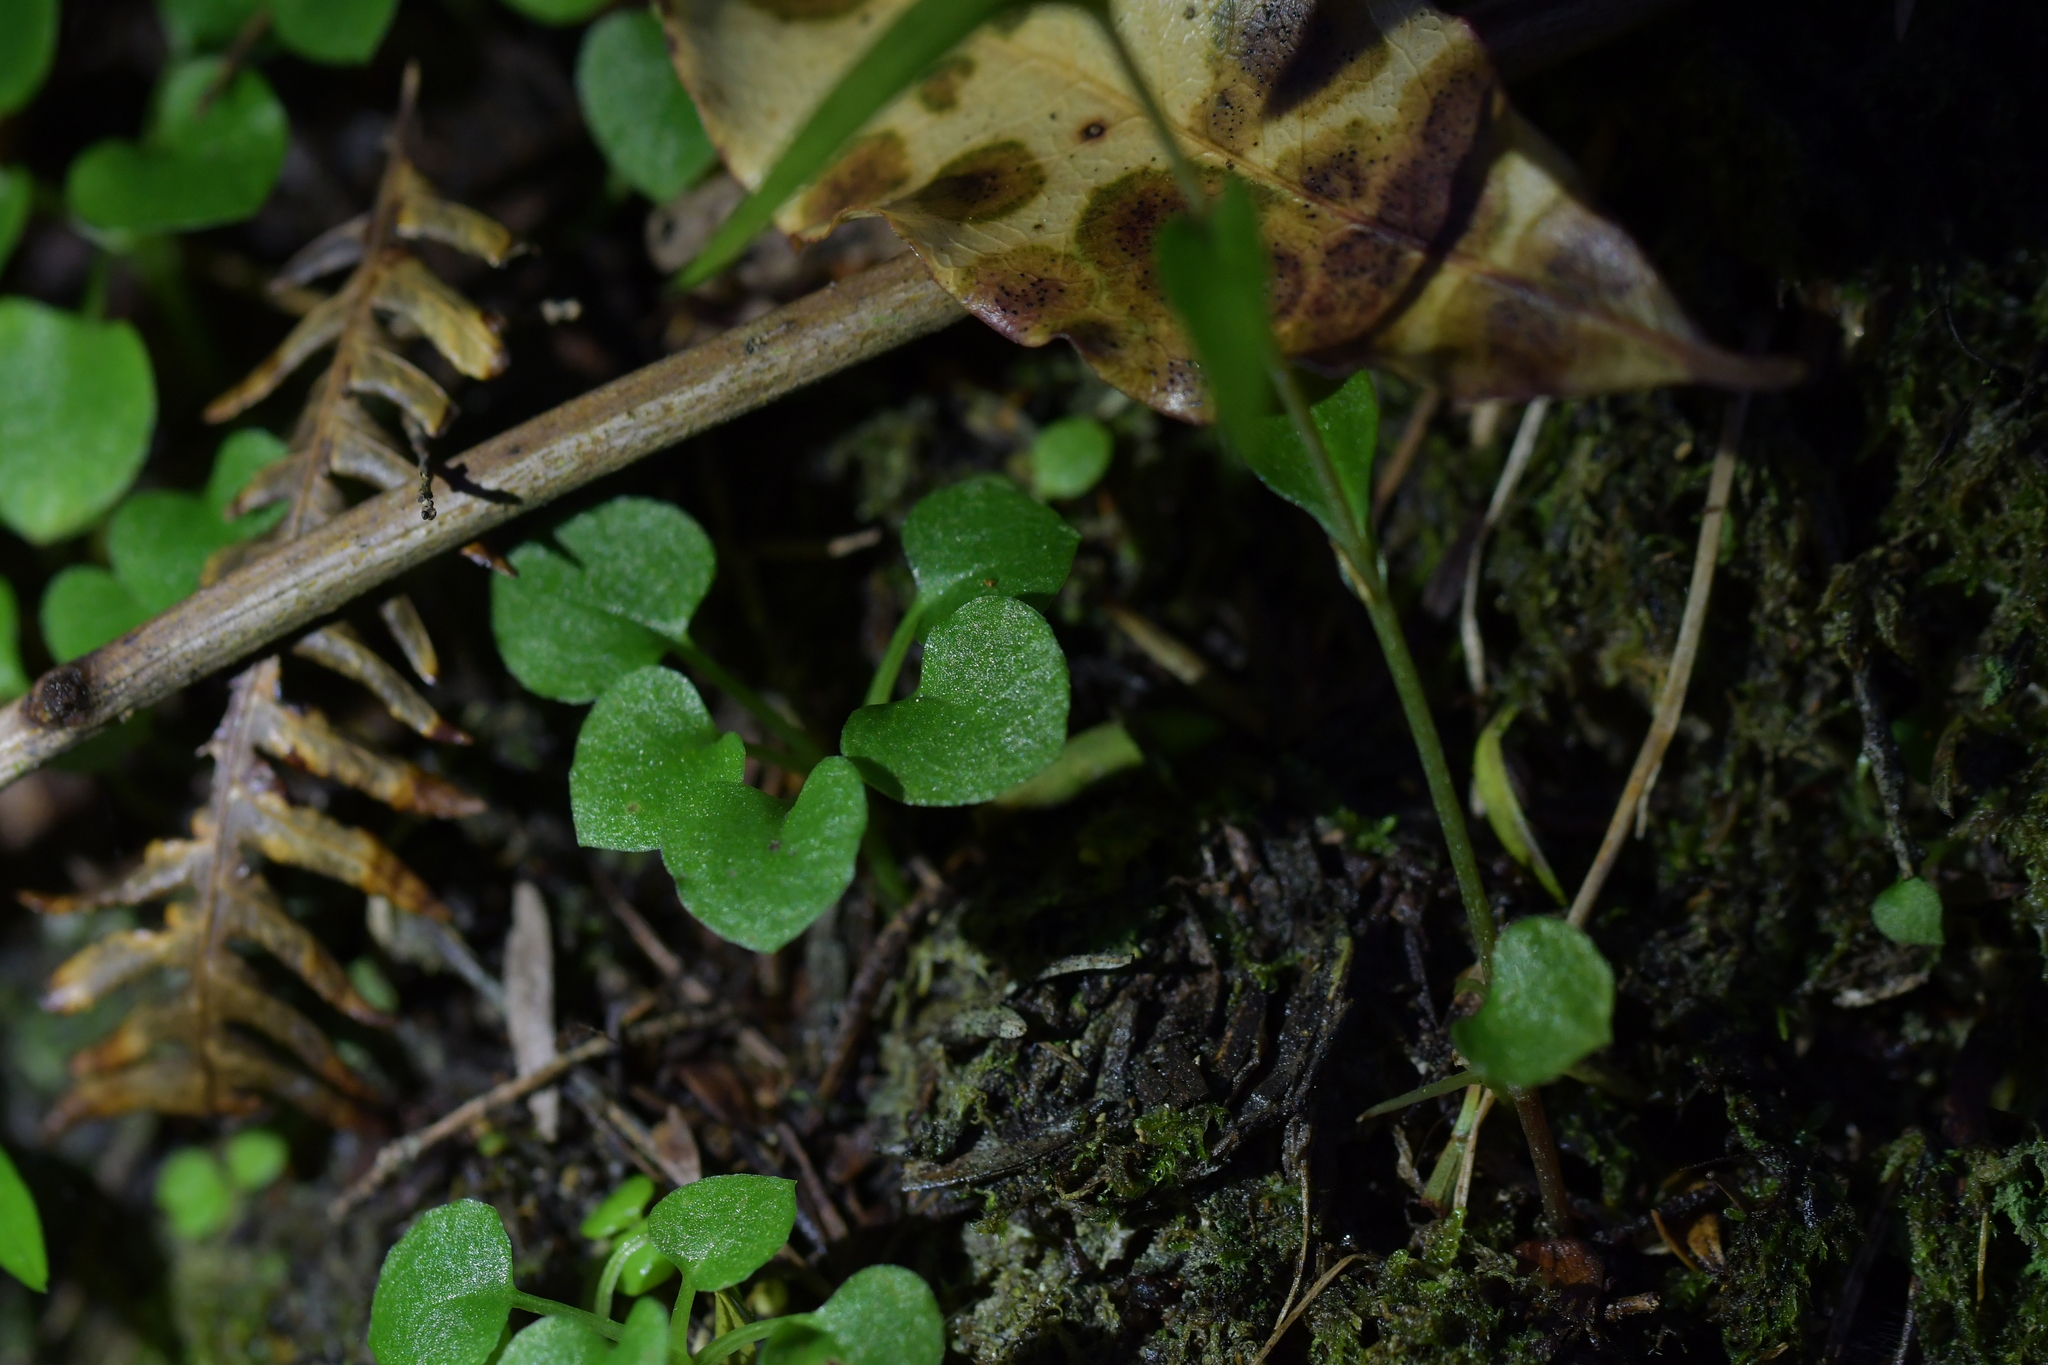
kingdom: Plantae
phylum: Tracheophyta
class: Liliopsida
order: Asparagales
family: Orchidaceae
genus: Pterostylis
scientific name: Pterostylis alobula
